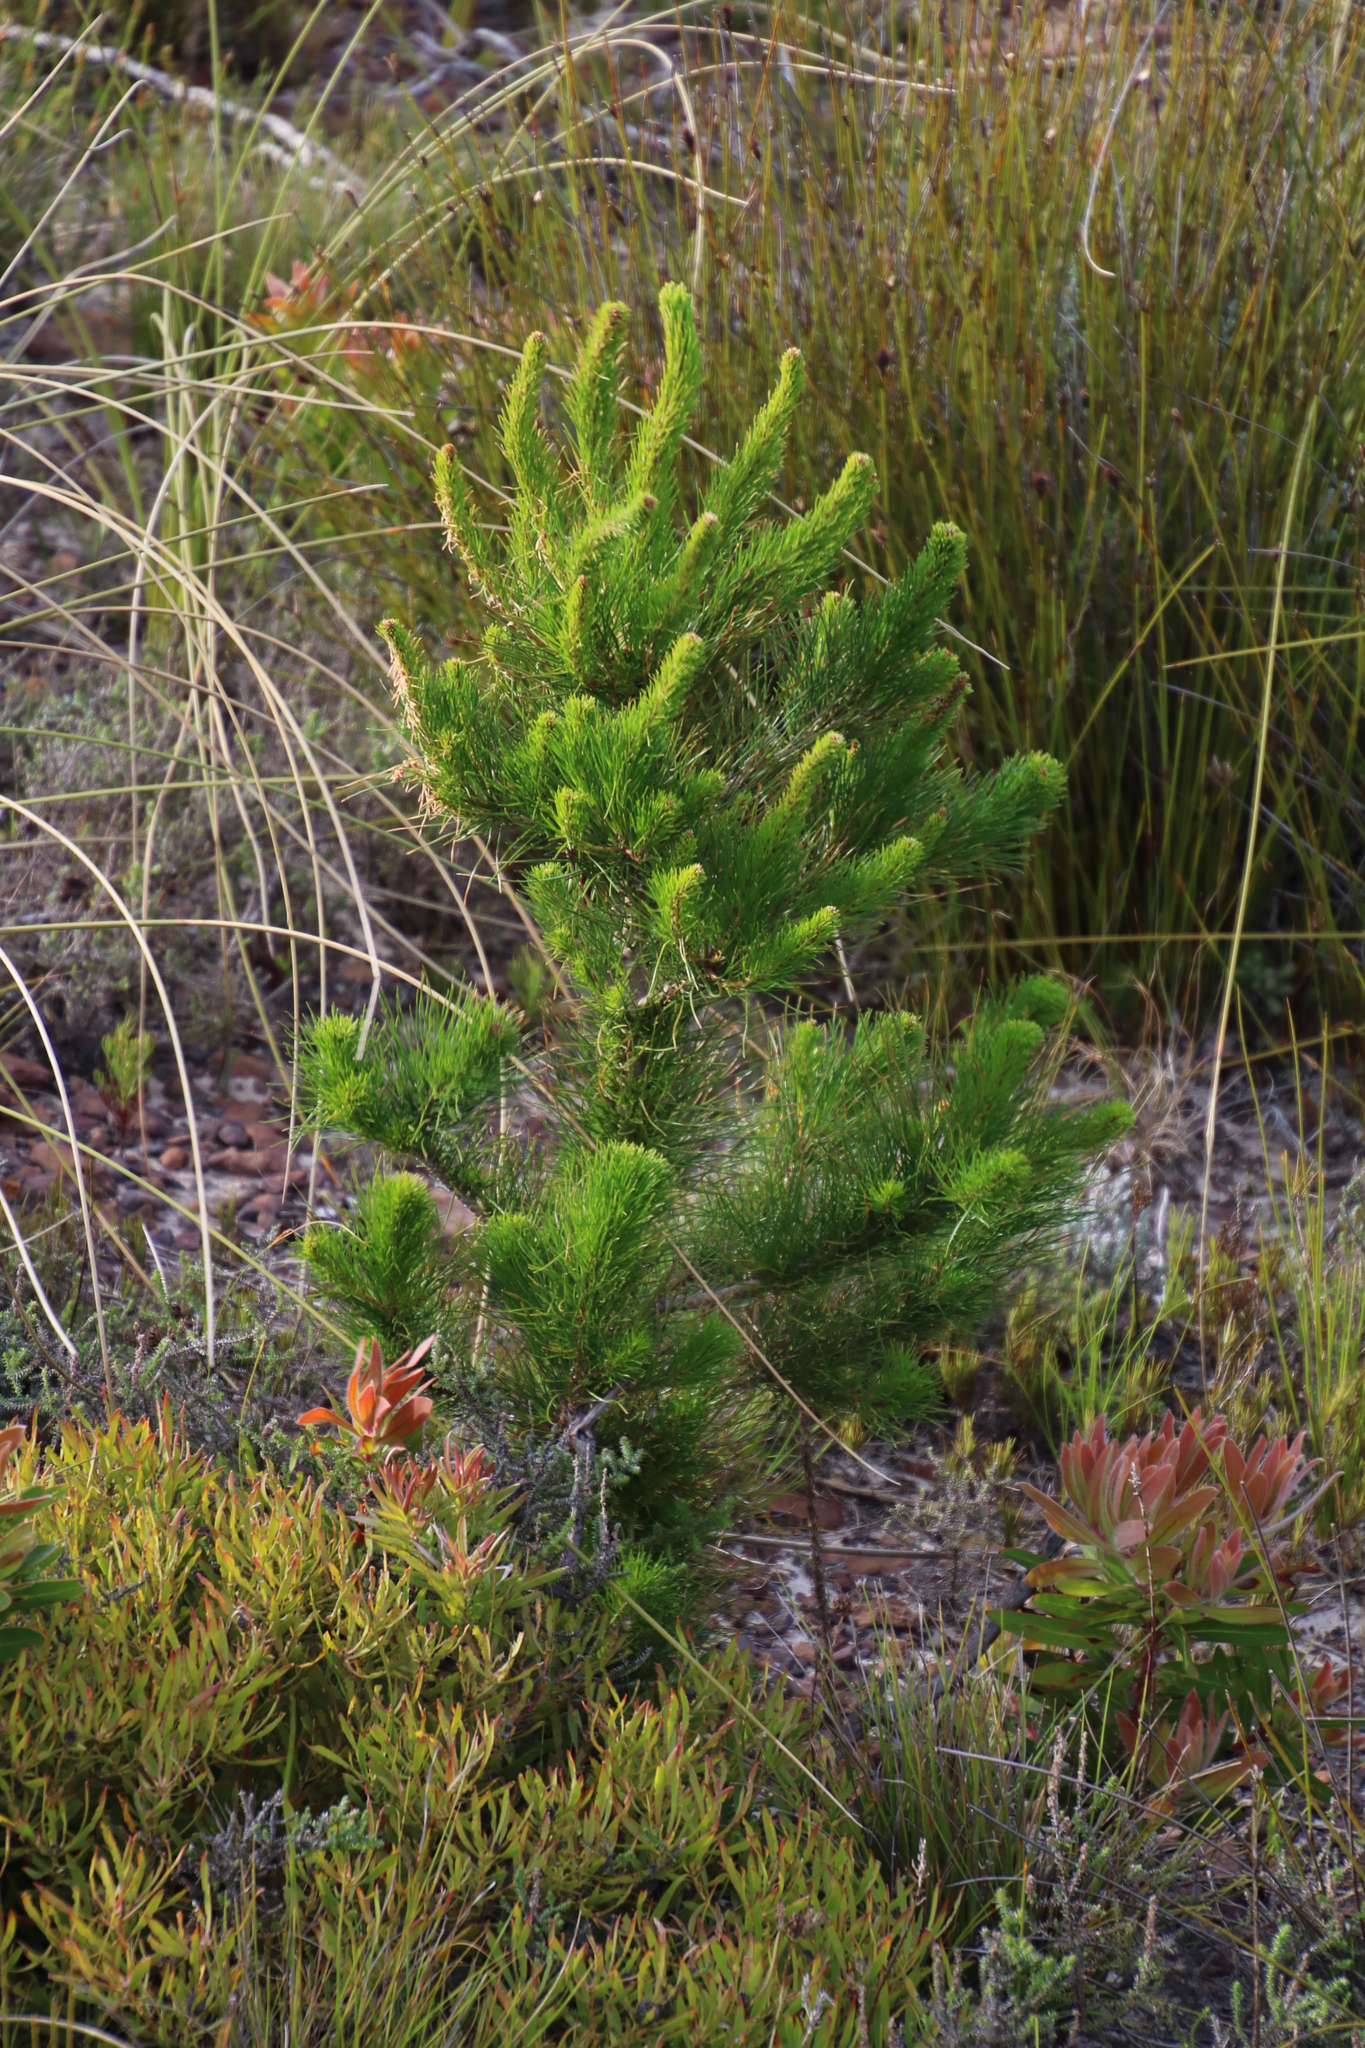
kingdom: Plantae
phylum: Tracheophyta
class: Pinopsida
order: Pinales
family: Pinaceae
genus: Pinus
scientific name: Pinus pinaster
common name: Maritime pine
